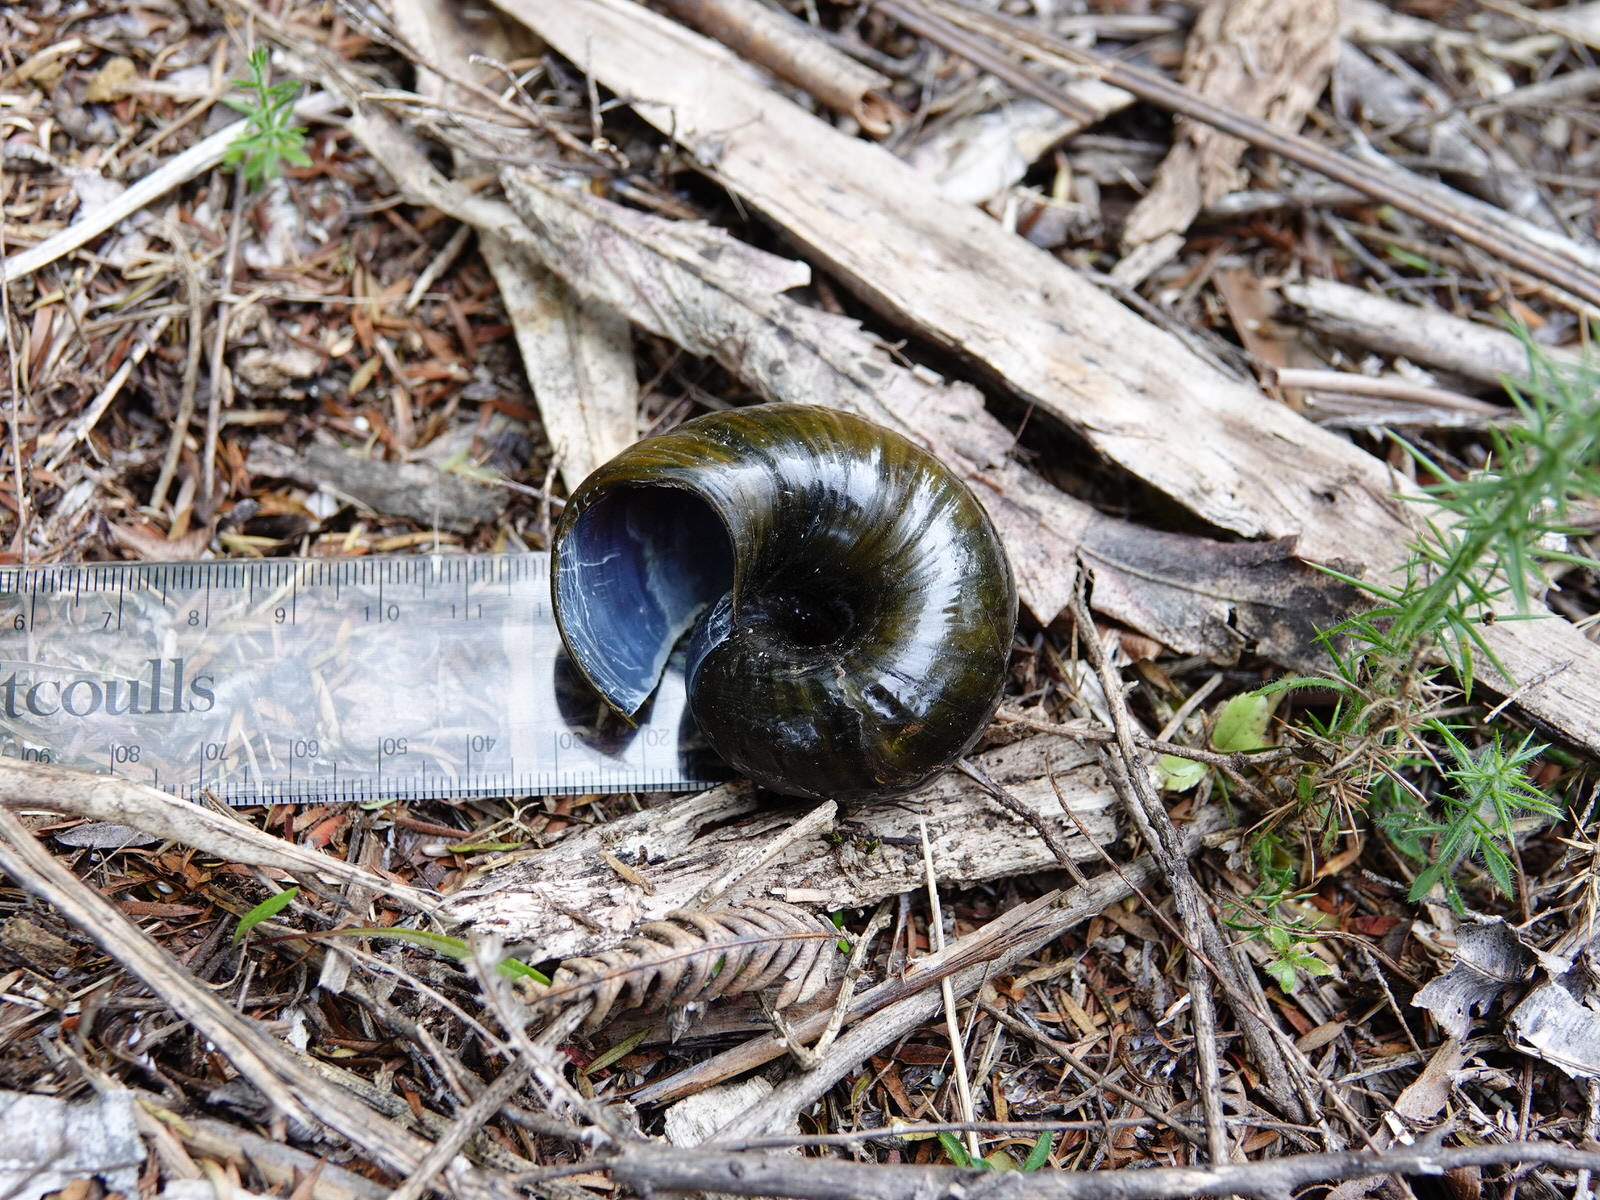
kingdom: Animalia
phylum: Mollusca
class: Gastropoda
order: Stylommatophora
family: Rhytididae
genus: Paryphanta
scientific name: Paryphanta busbyi
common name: Kauri snail
